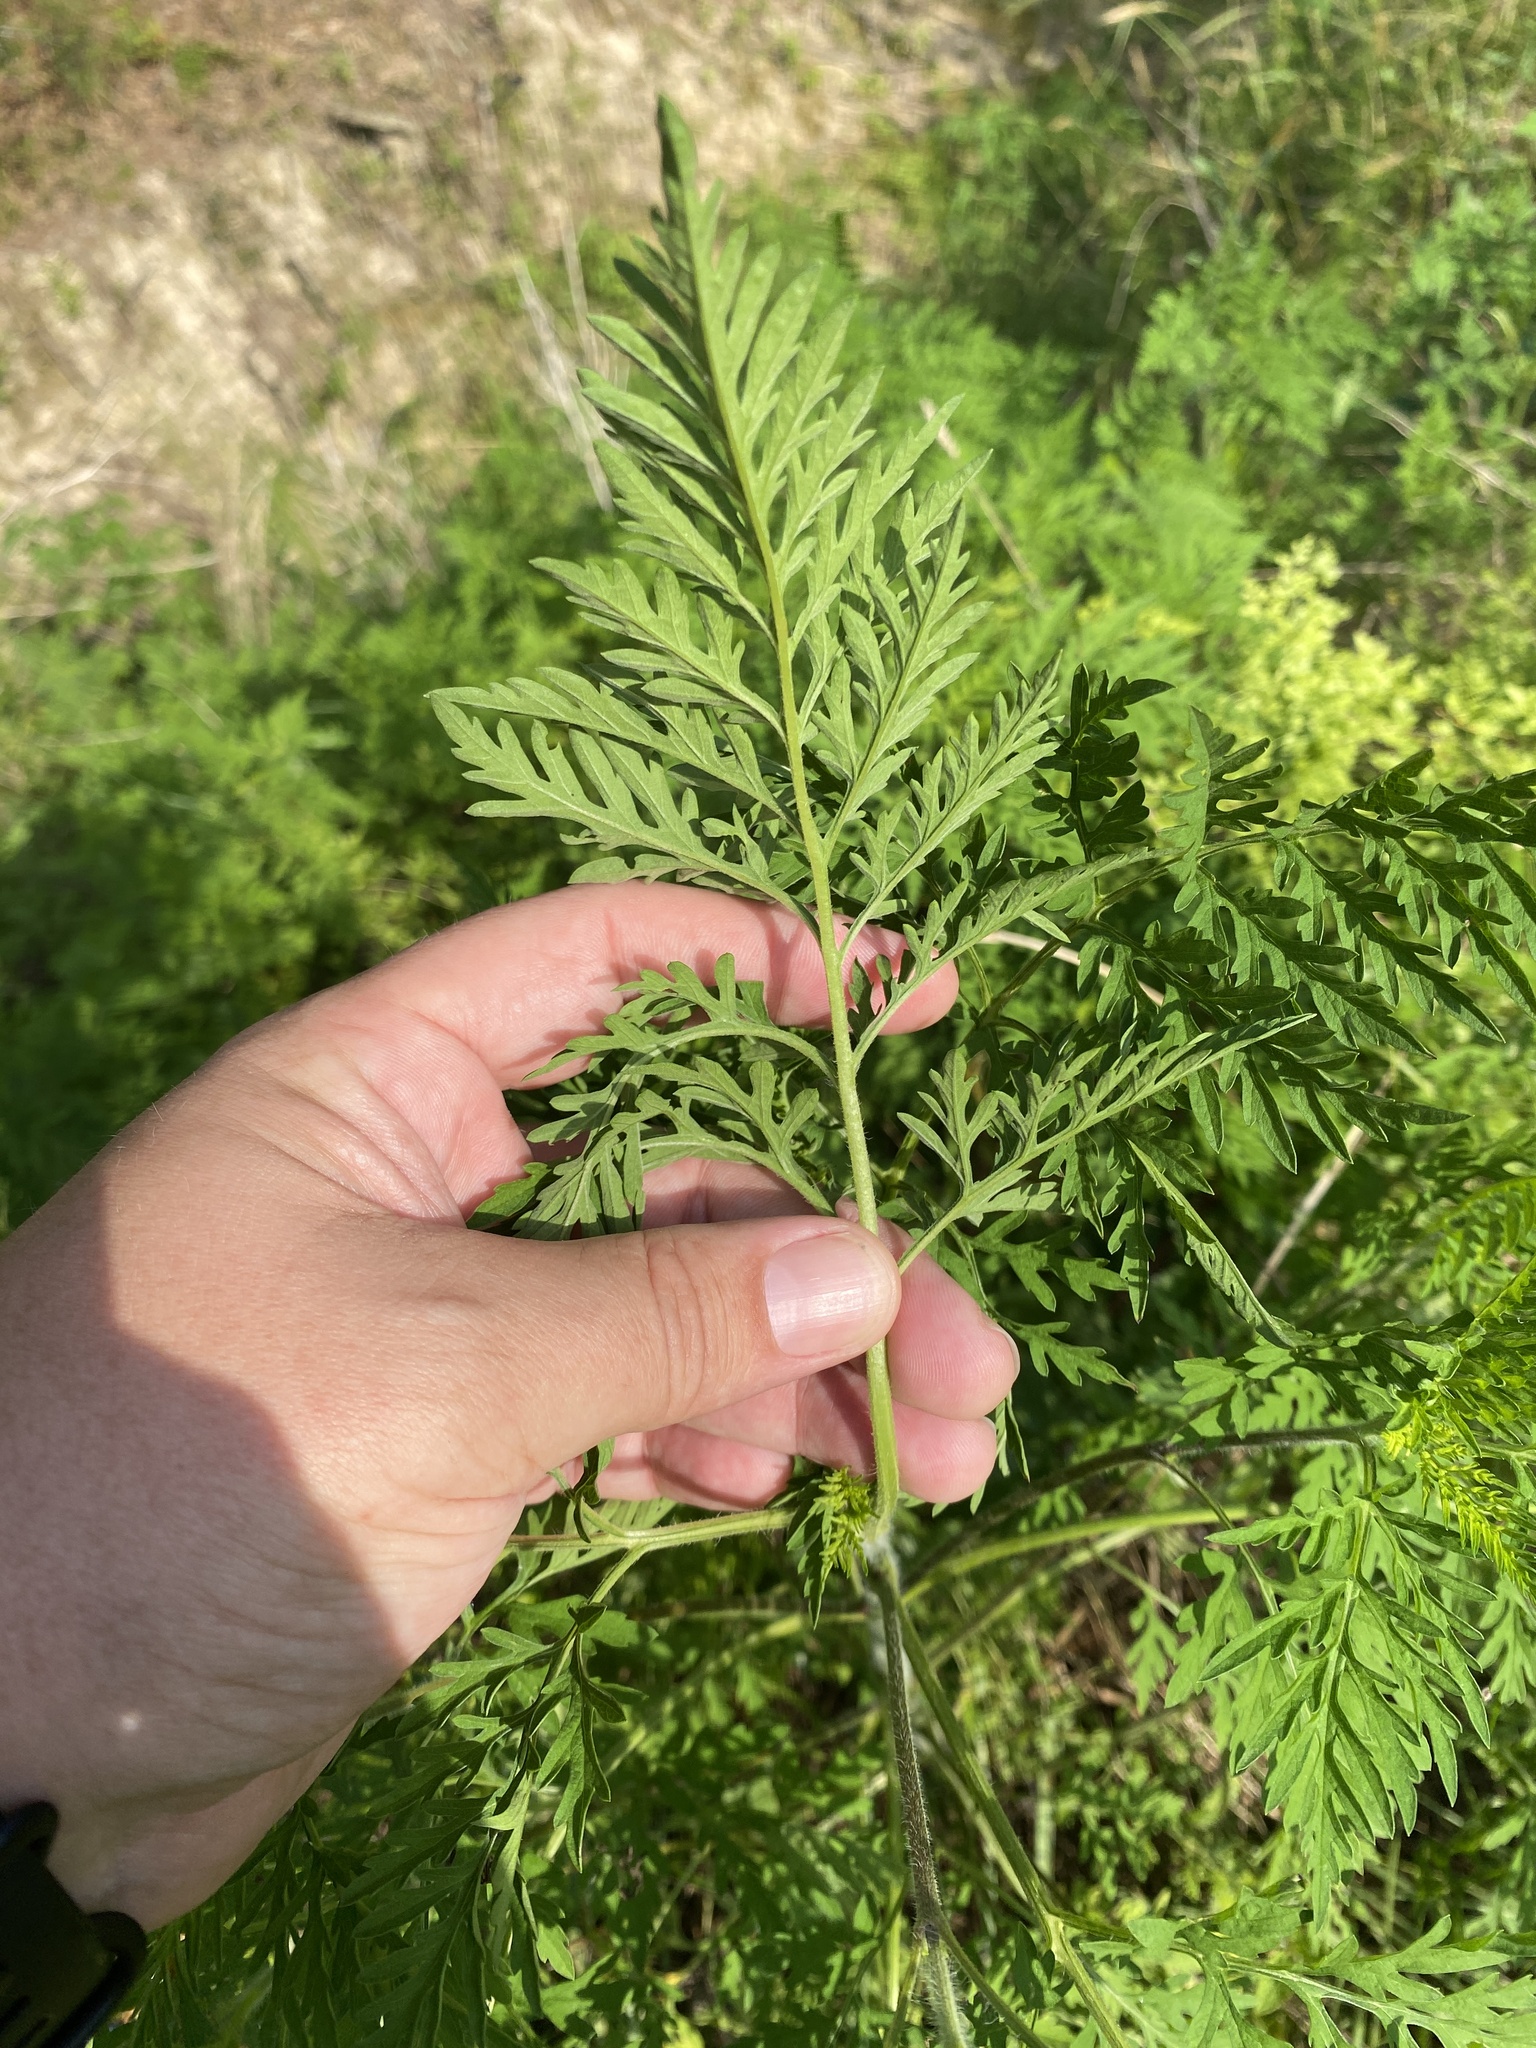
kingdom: Plantae
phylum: Tracheophyta
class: Magnoliopsida
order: Asterales
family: Asteraceae
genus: Ambrosia
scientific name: Ambrosia artemisiifolia
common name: Annual ragweed
